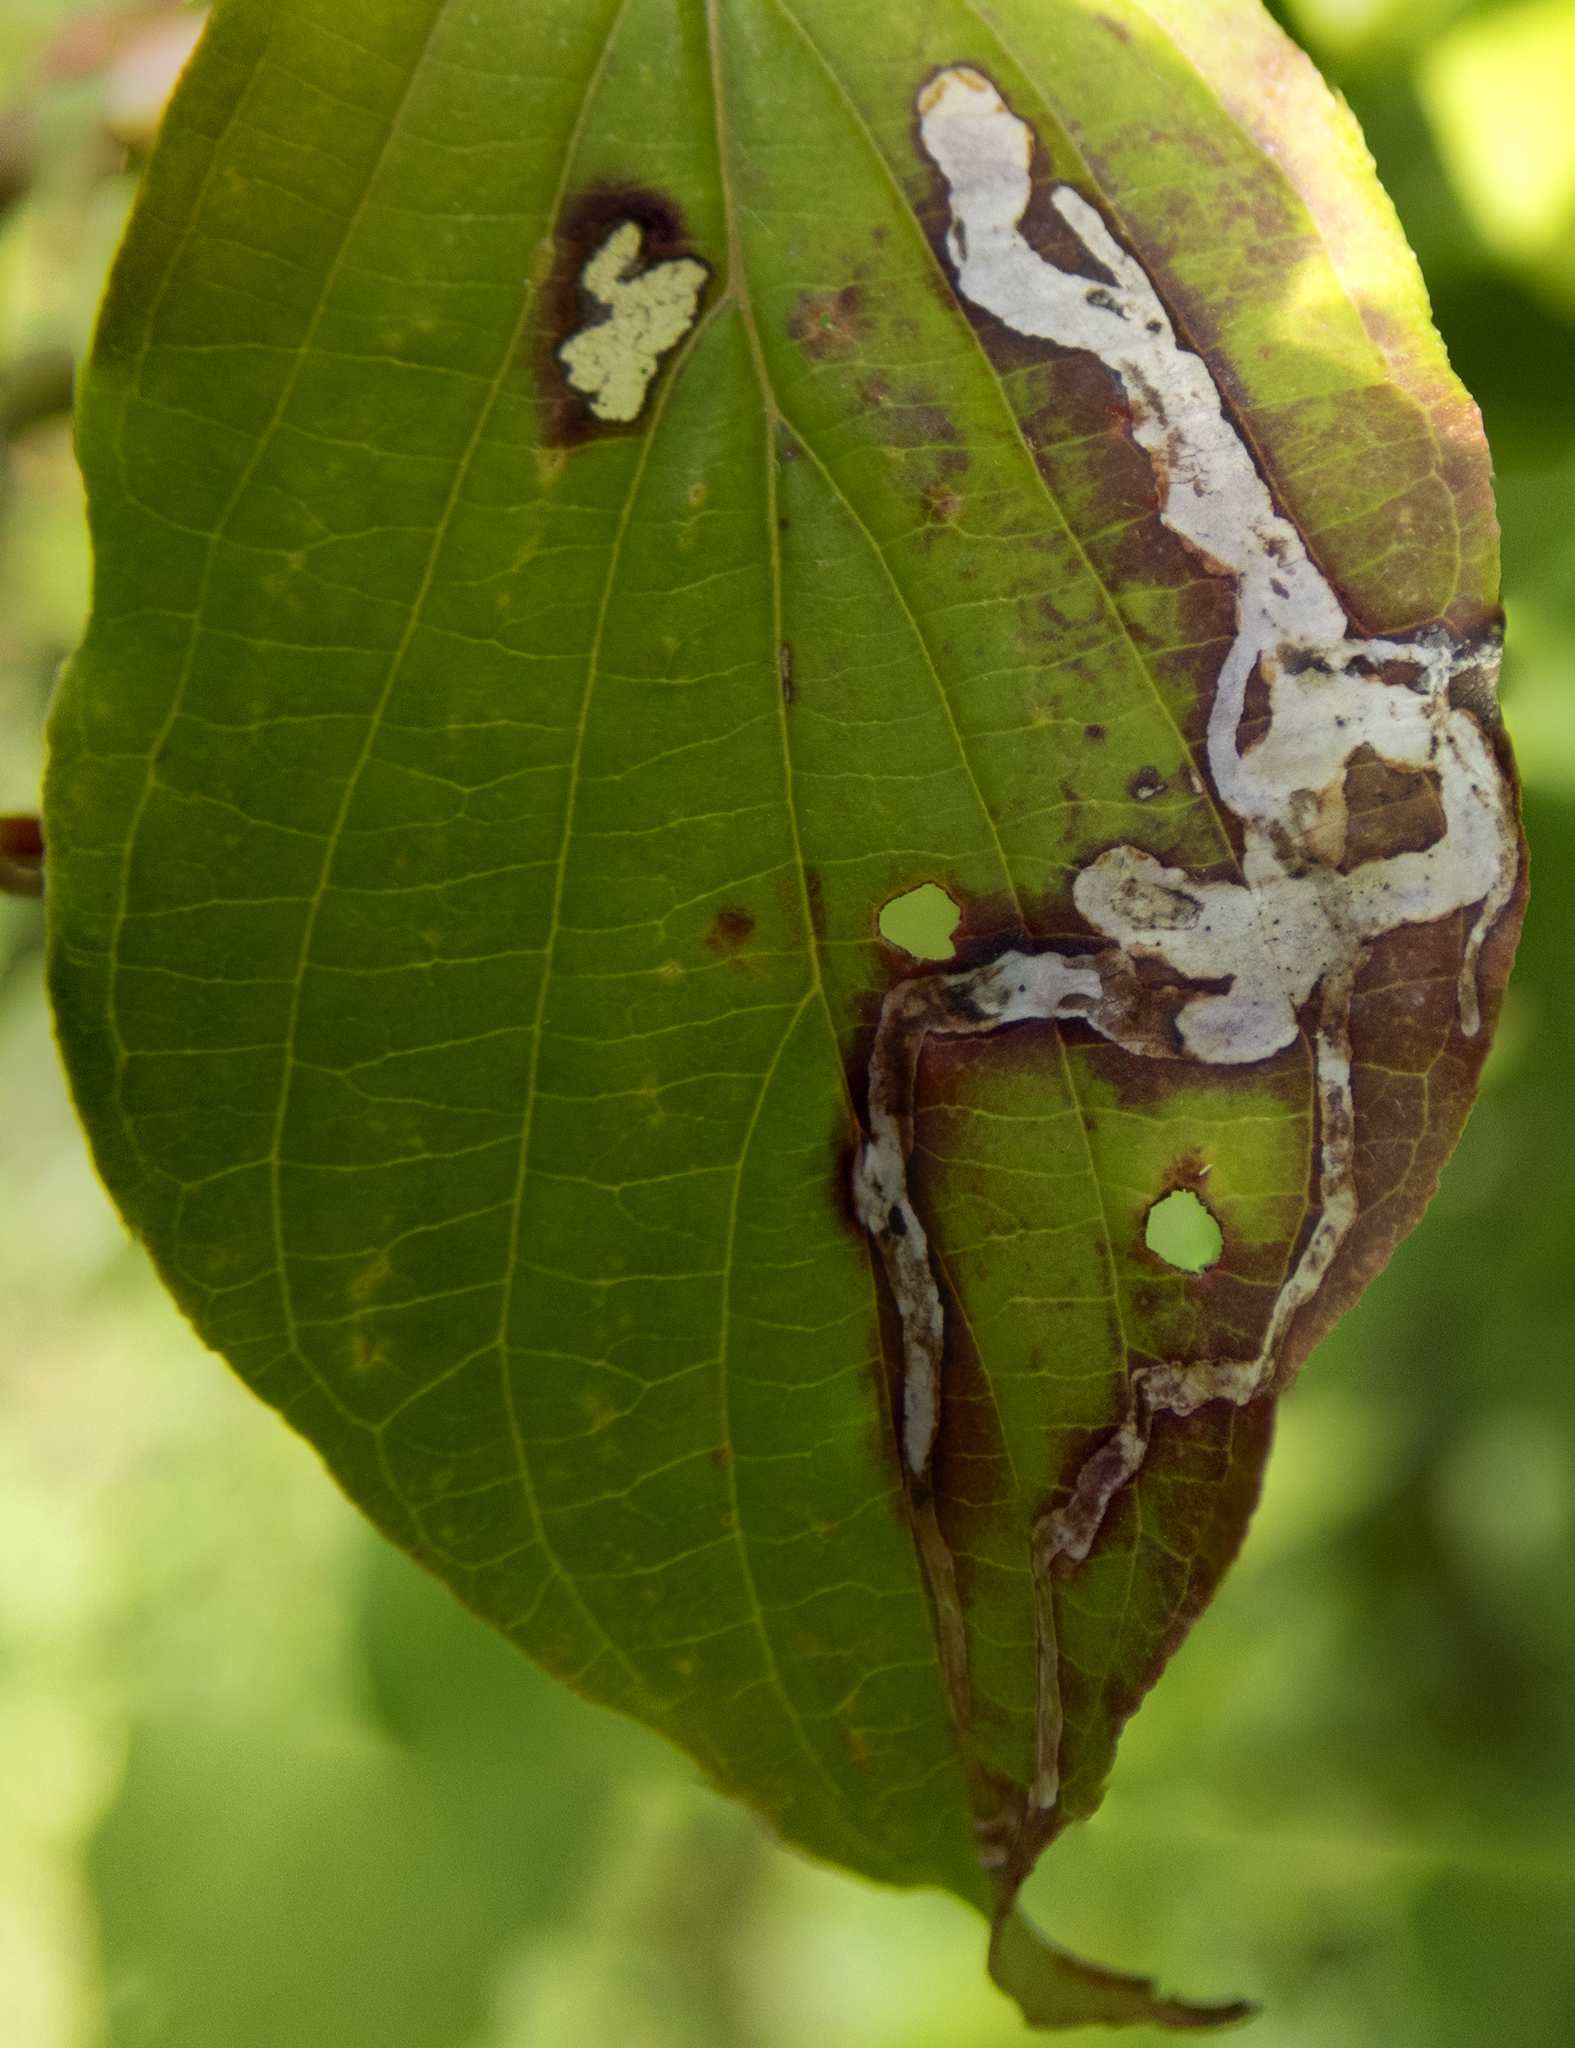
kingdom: Animalia
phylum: Arthropoda
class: Insecta
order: Diptera
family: Agromyzidae
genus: Phytomyza
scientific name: Phytomyza agromyzina
